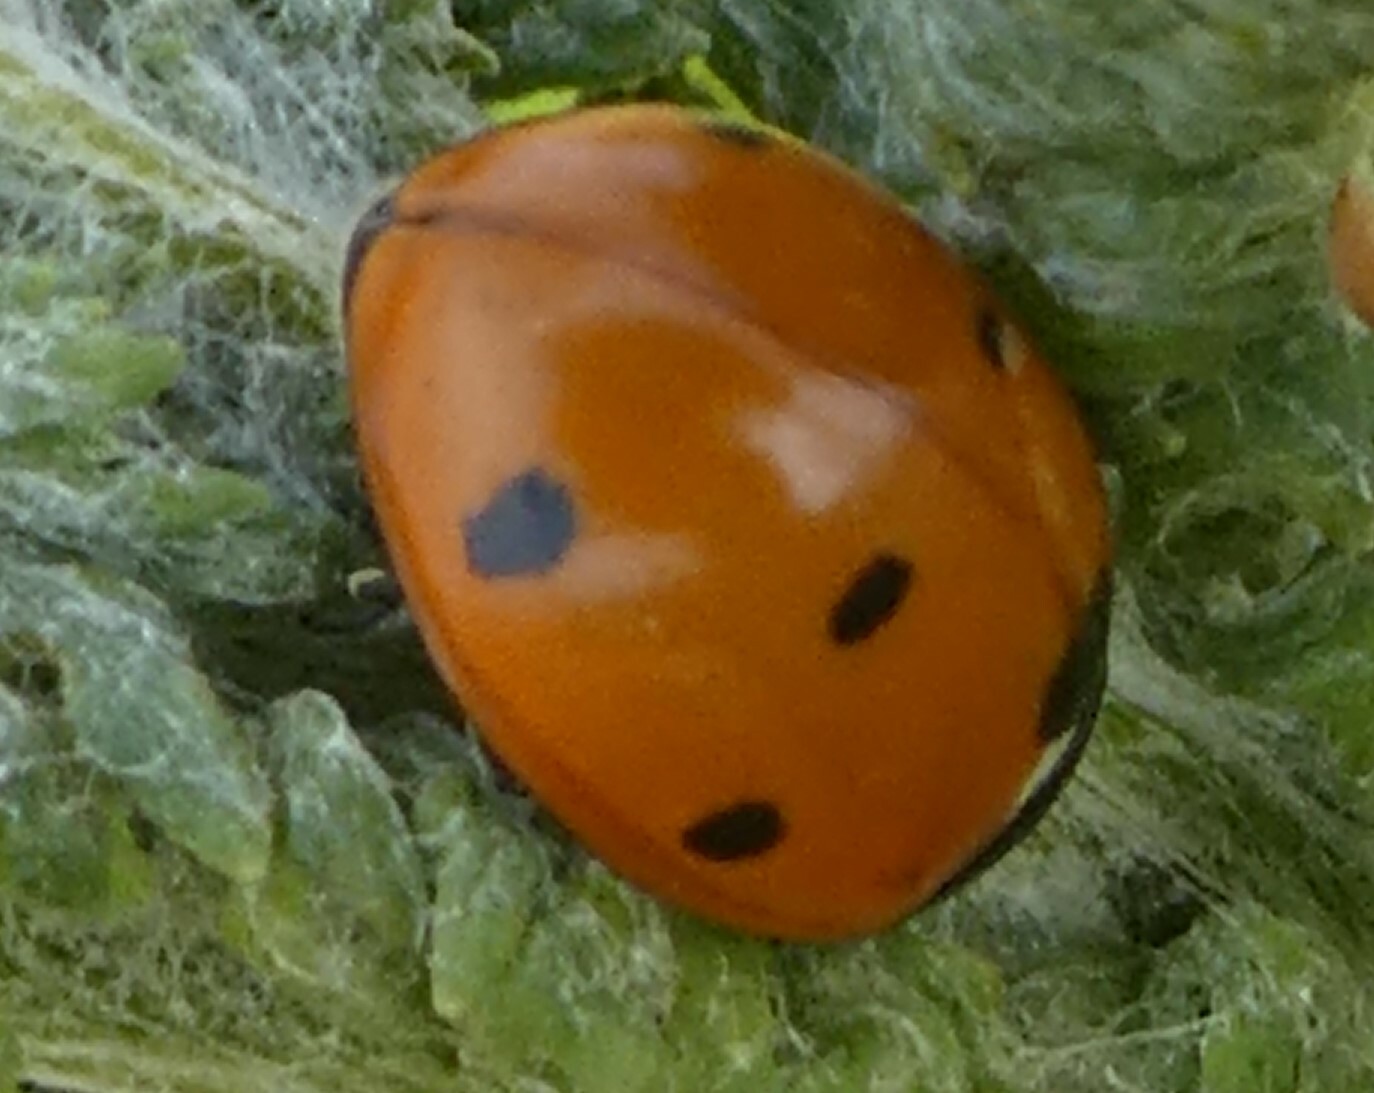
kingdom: Animalia
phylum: Arthropoda
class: Insecta
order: Coleoptera
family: Coccinellidae
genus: Coccinella
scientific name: Coccinella septempunctata
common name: Sevenspotted lady beetle
